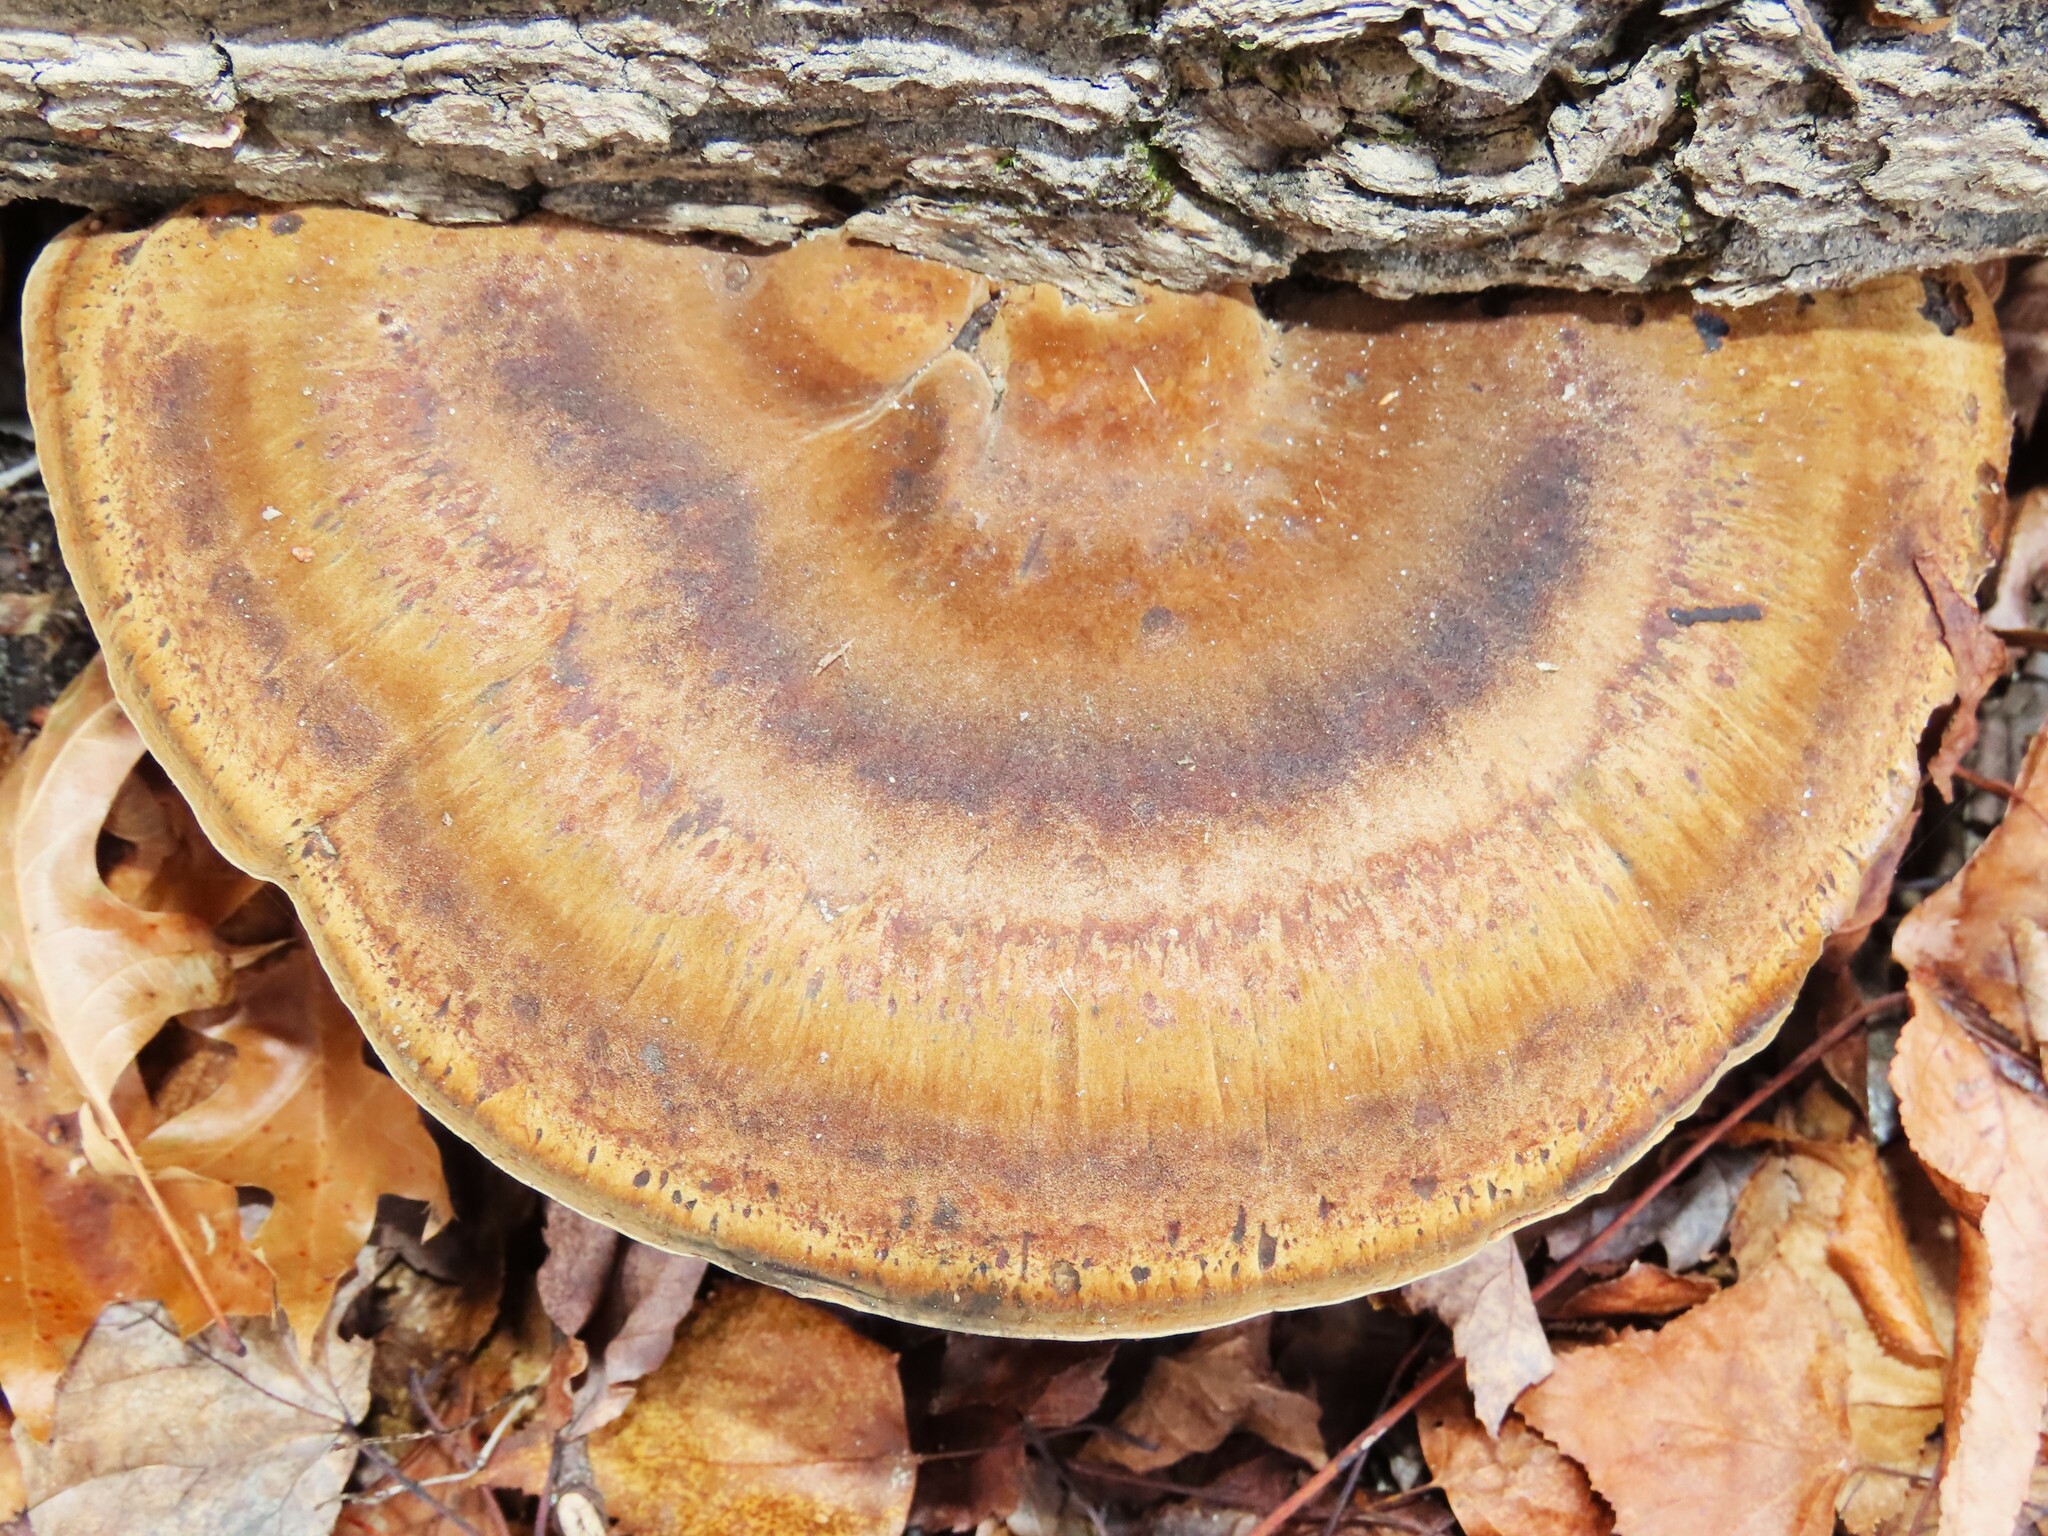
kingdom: Fungi
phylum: Basidiomycota
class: Agaricomycetes
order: Polyporales
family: Ischnodermataceae
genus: Ischnoderma
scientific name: Ischnoderma resinosum
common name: Resinous polypore
